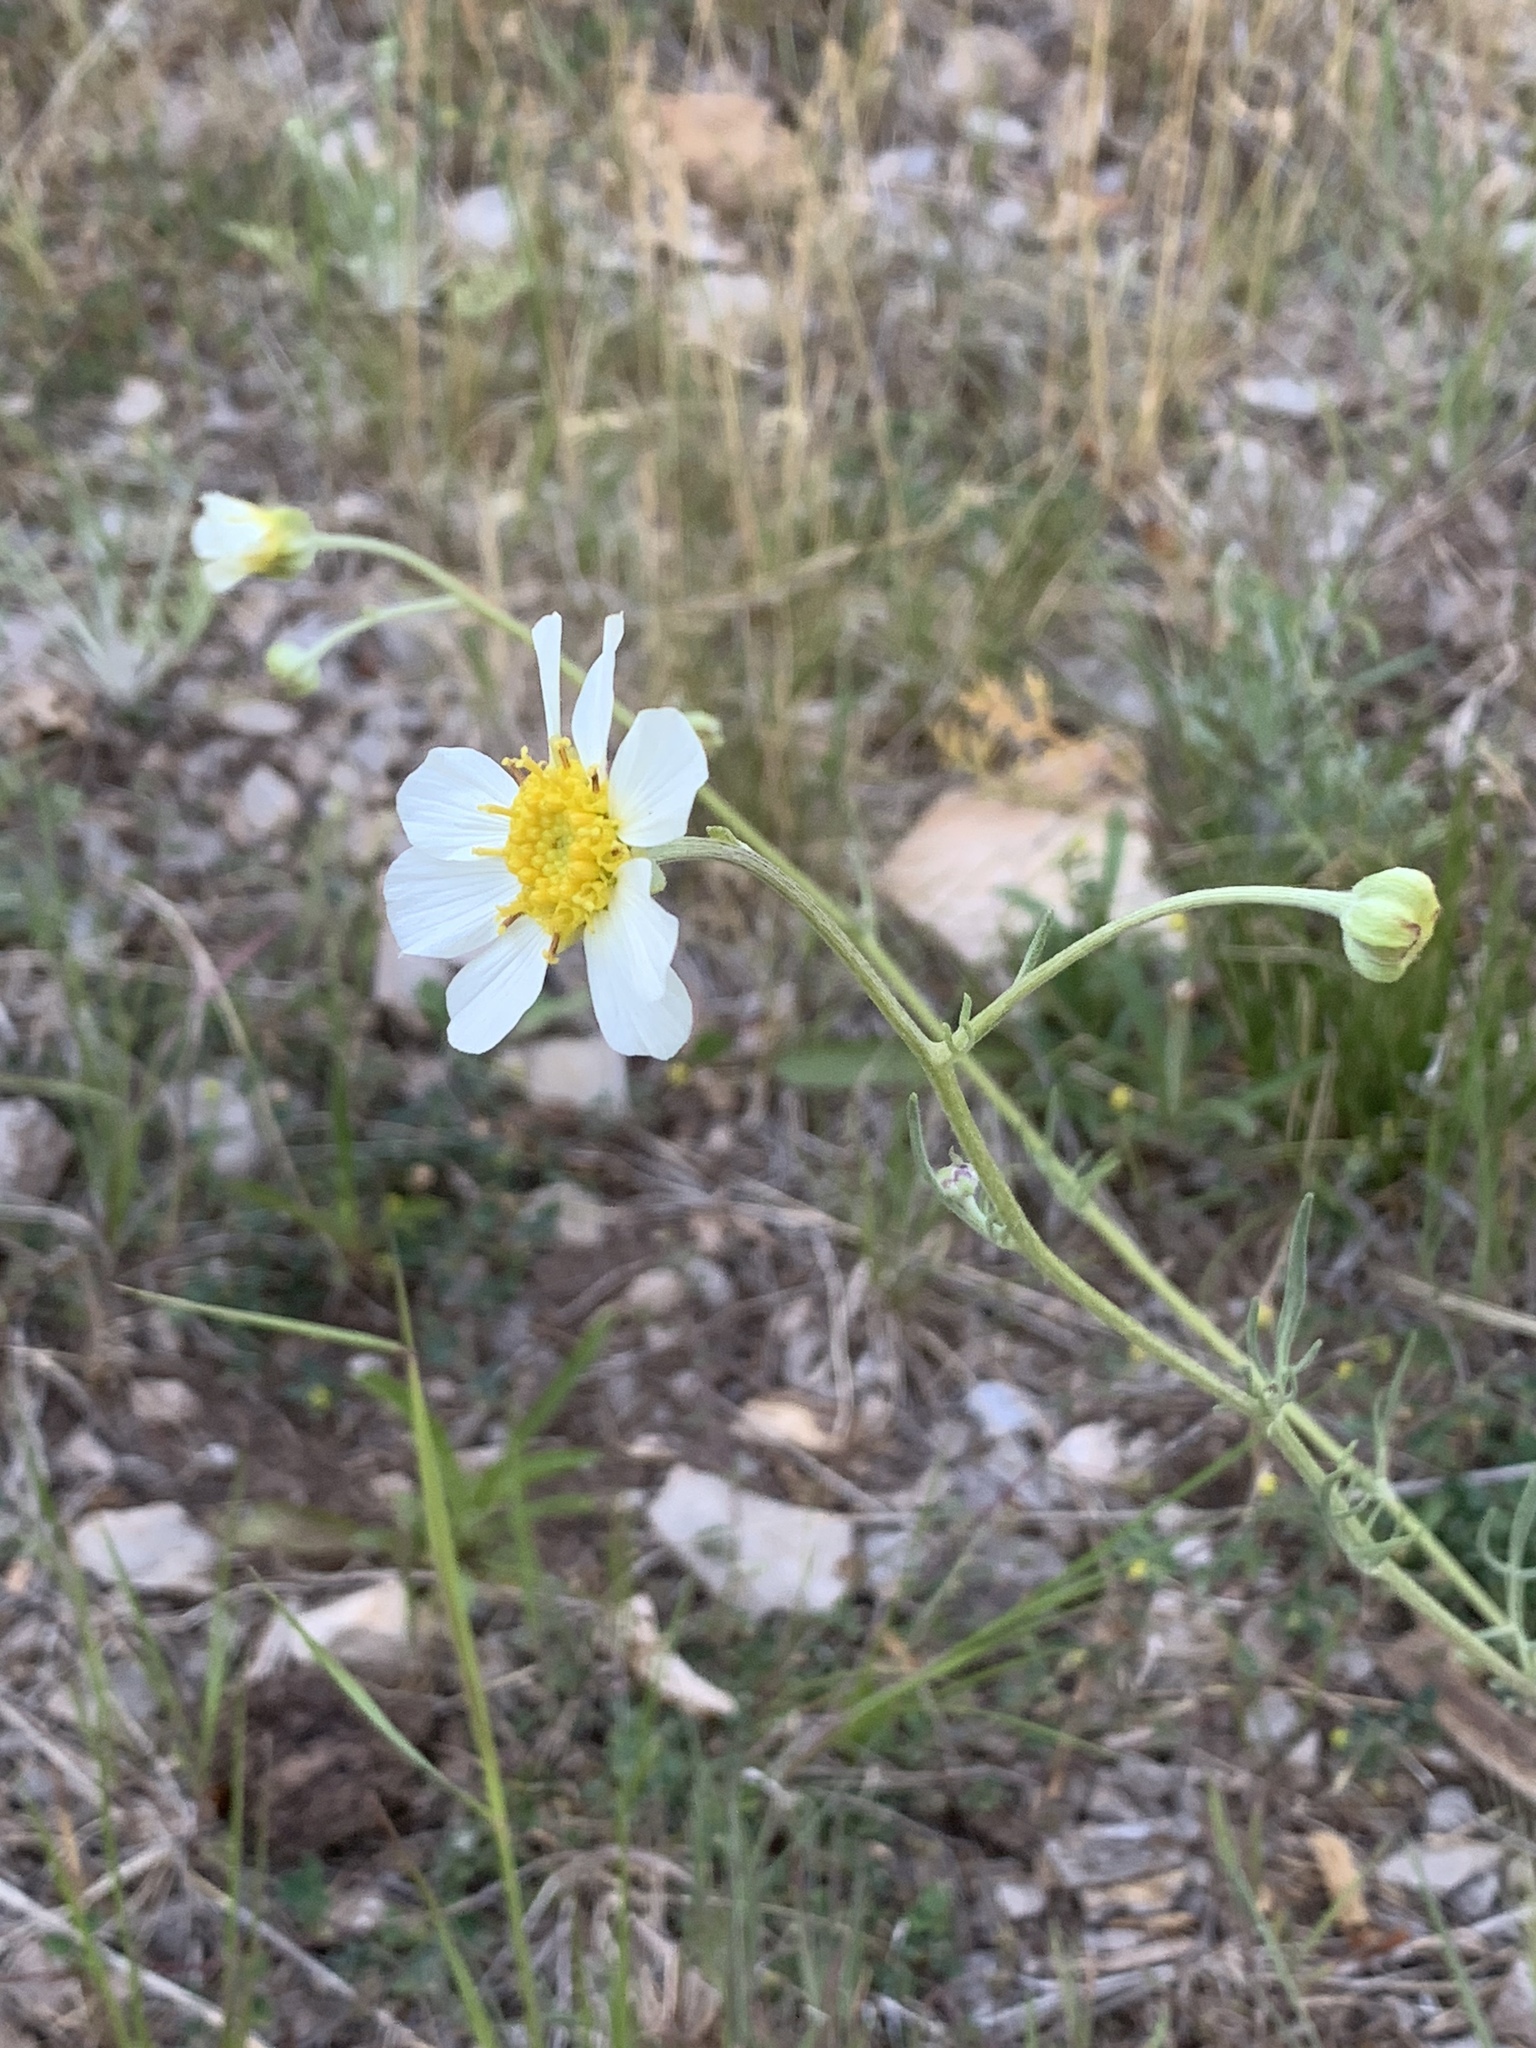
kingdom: Plantae
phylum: Tracheophyta
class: Magnoliopsida
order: Asterales
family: Asteraceae
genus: Melampodium
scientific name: Melampodium leucanthum
